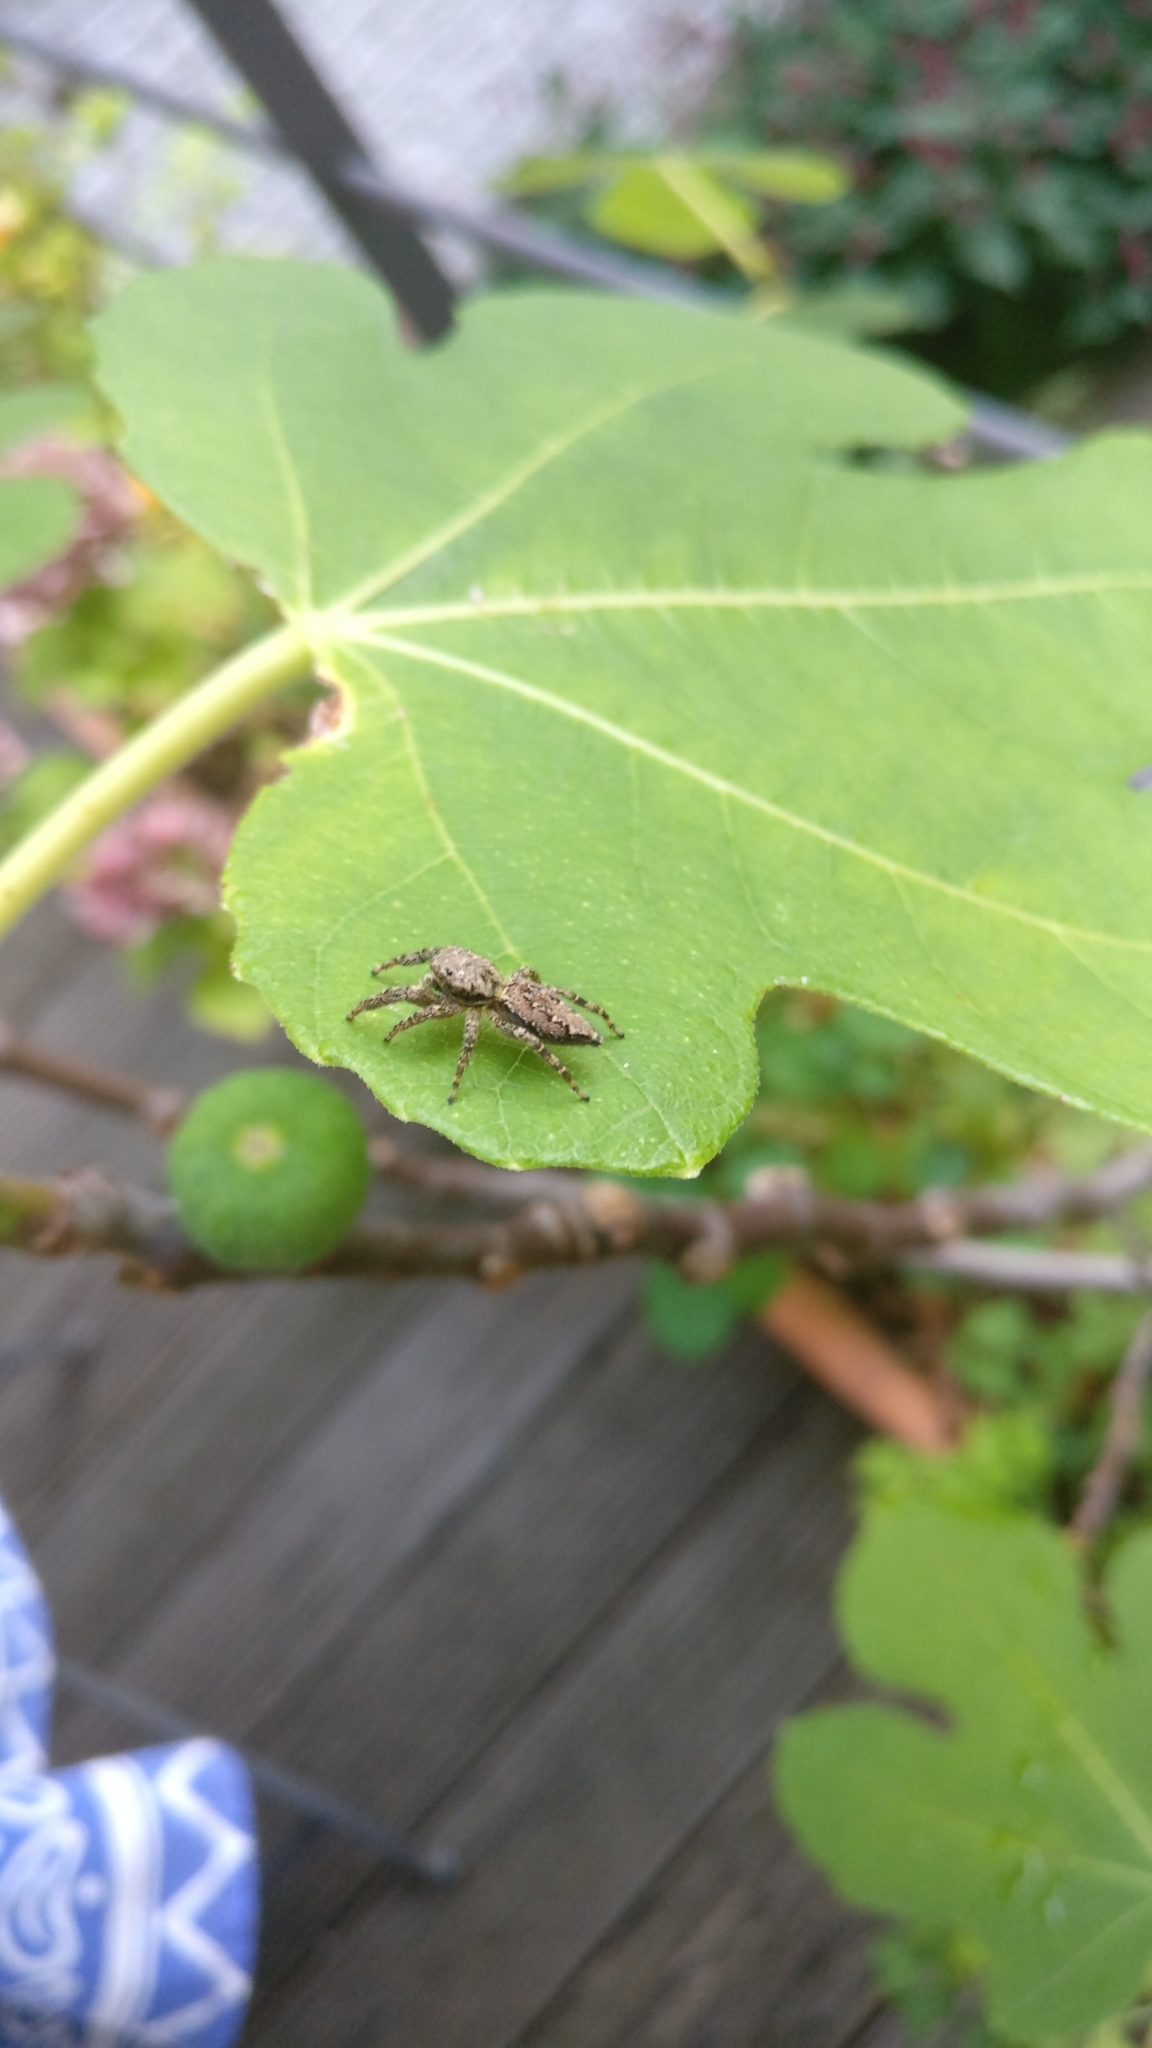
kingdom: Animalia
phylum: Arthropoda
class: Arachnida
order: Araneae
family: Salticidae
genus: Marpissa
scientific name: Marpissa muscosa
